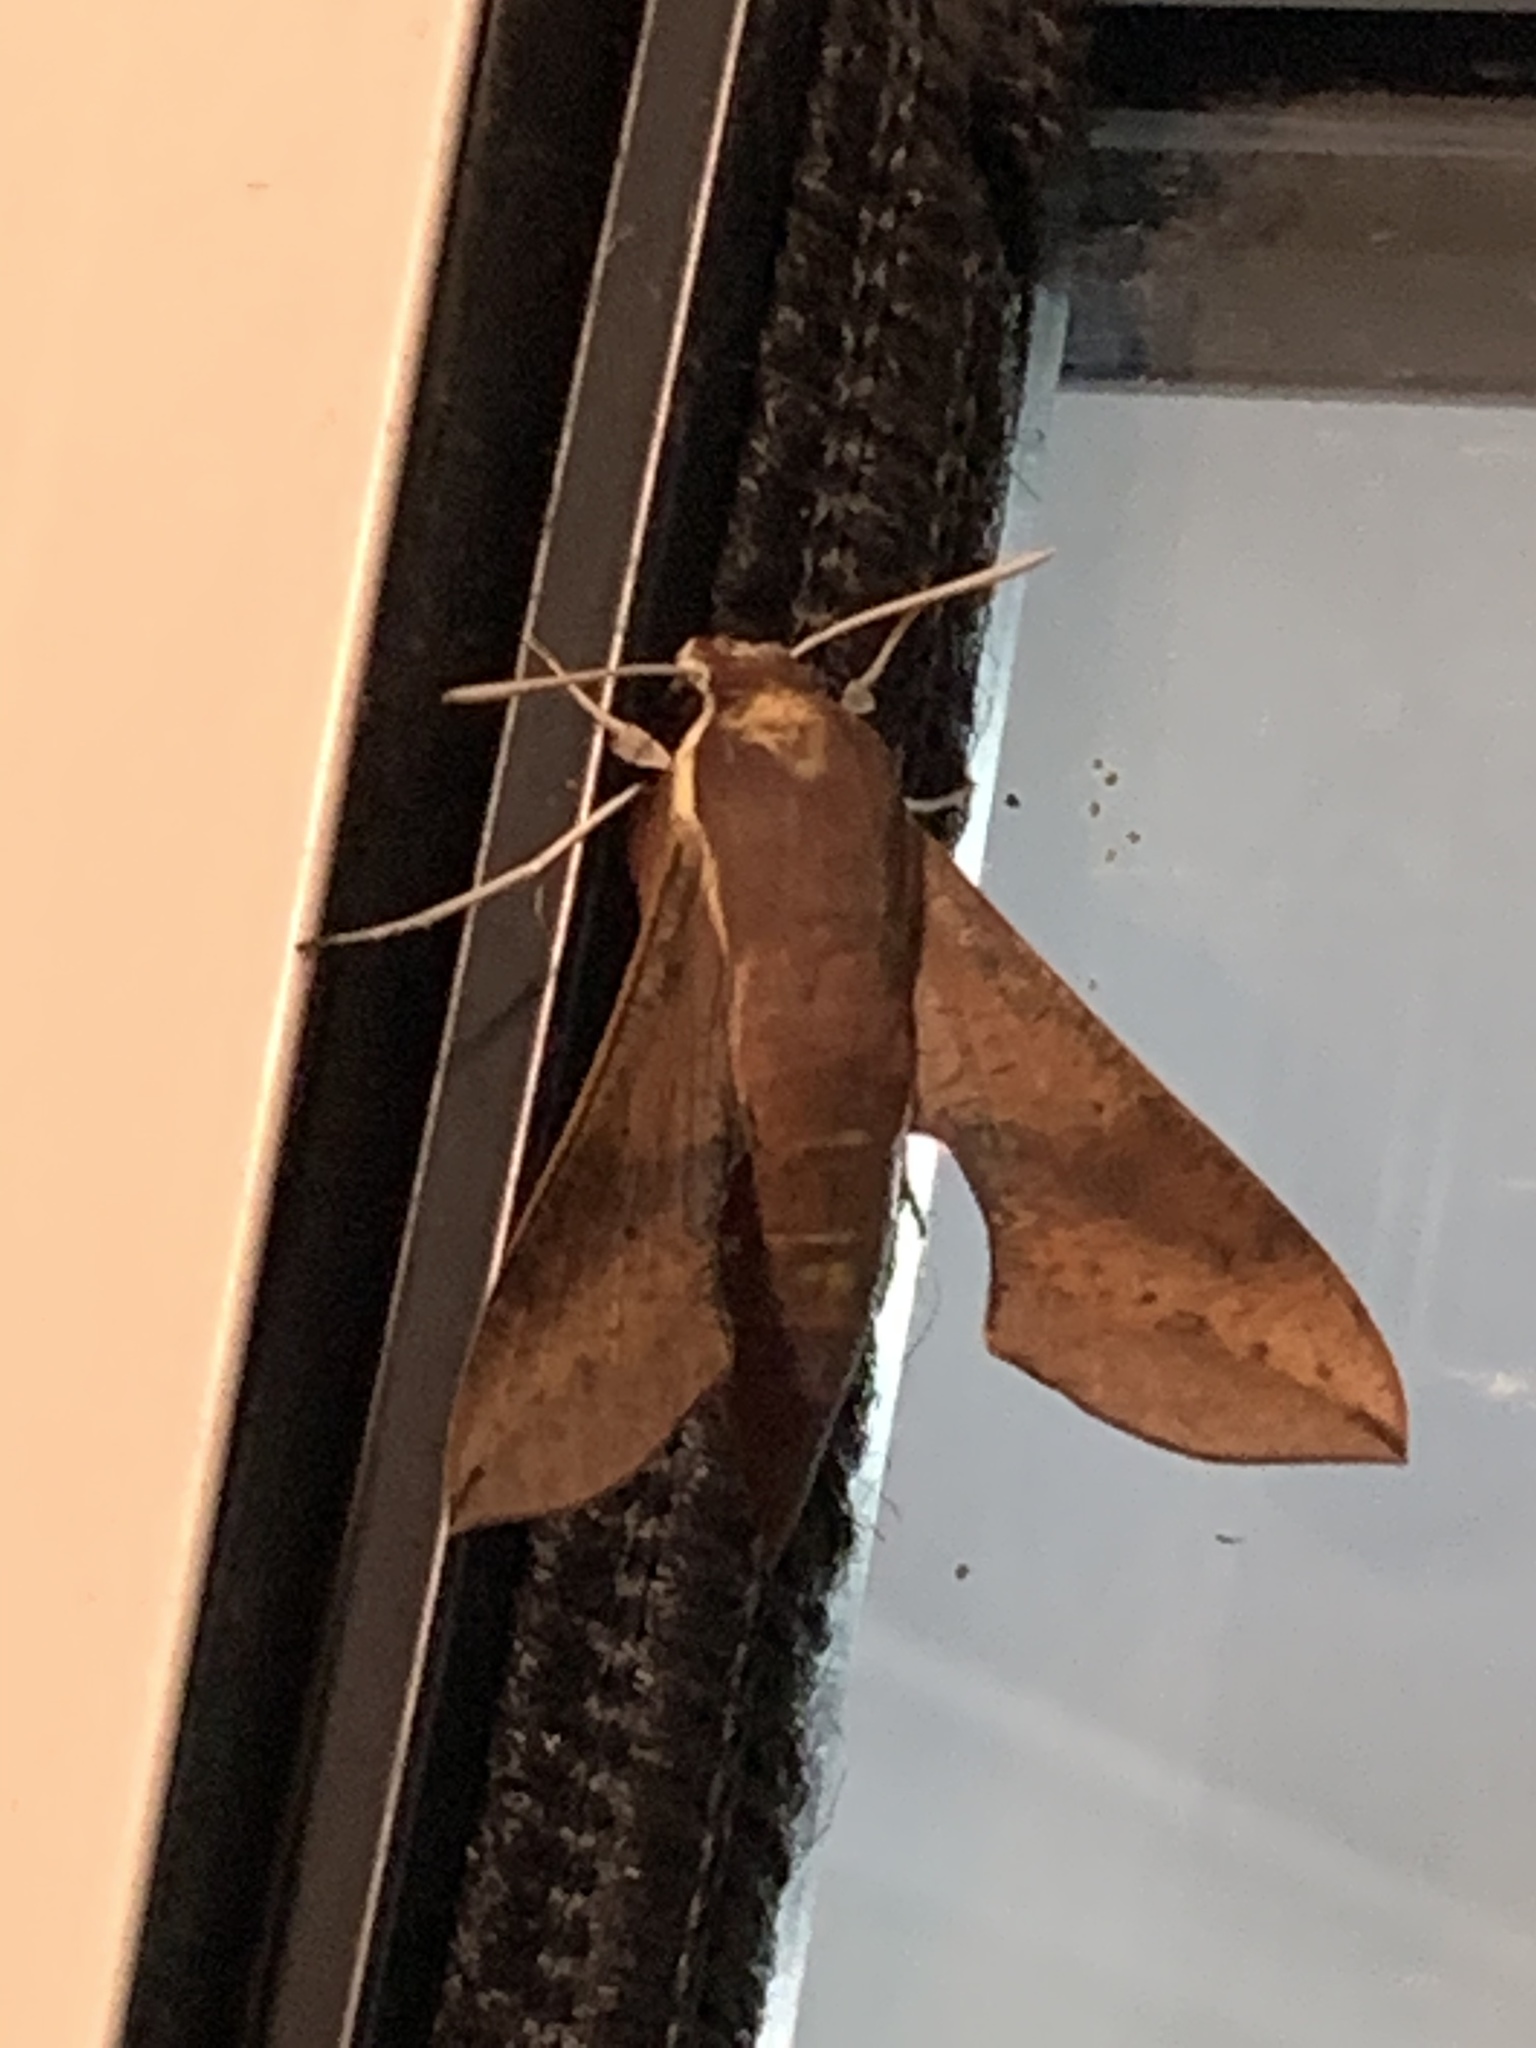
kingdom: Animalia
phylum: Arthropoda
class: Insecta
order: Lepidoptera
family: Sphingidae
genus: Hippotion
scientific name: Hippotion scrofa
